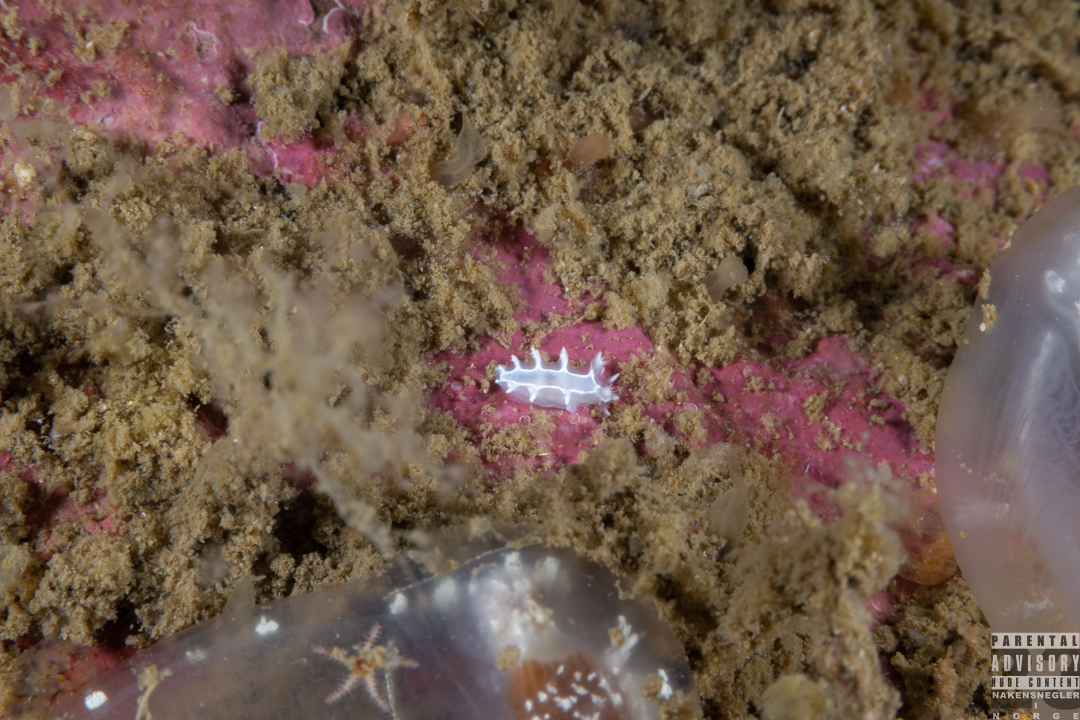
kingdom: Animalia
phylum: Mollusca
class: Gastropoda
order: Nudibranchia
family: Tritoniidae
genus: Duvaucelia
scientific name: Duvaucelia lineata
